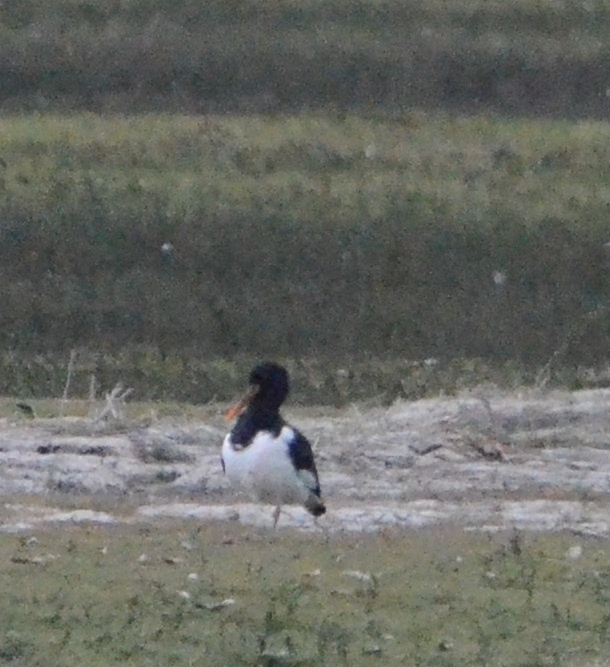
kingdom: Animalia
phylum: Chordata
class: Aves
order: Charadriiformes
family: Haematopodidae
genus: Haematopus
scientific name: Haematopus ostralegus
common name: Eurasian oystercatcher
